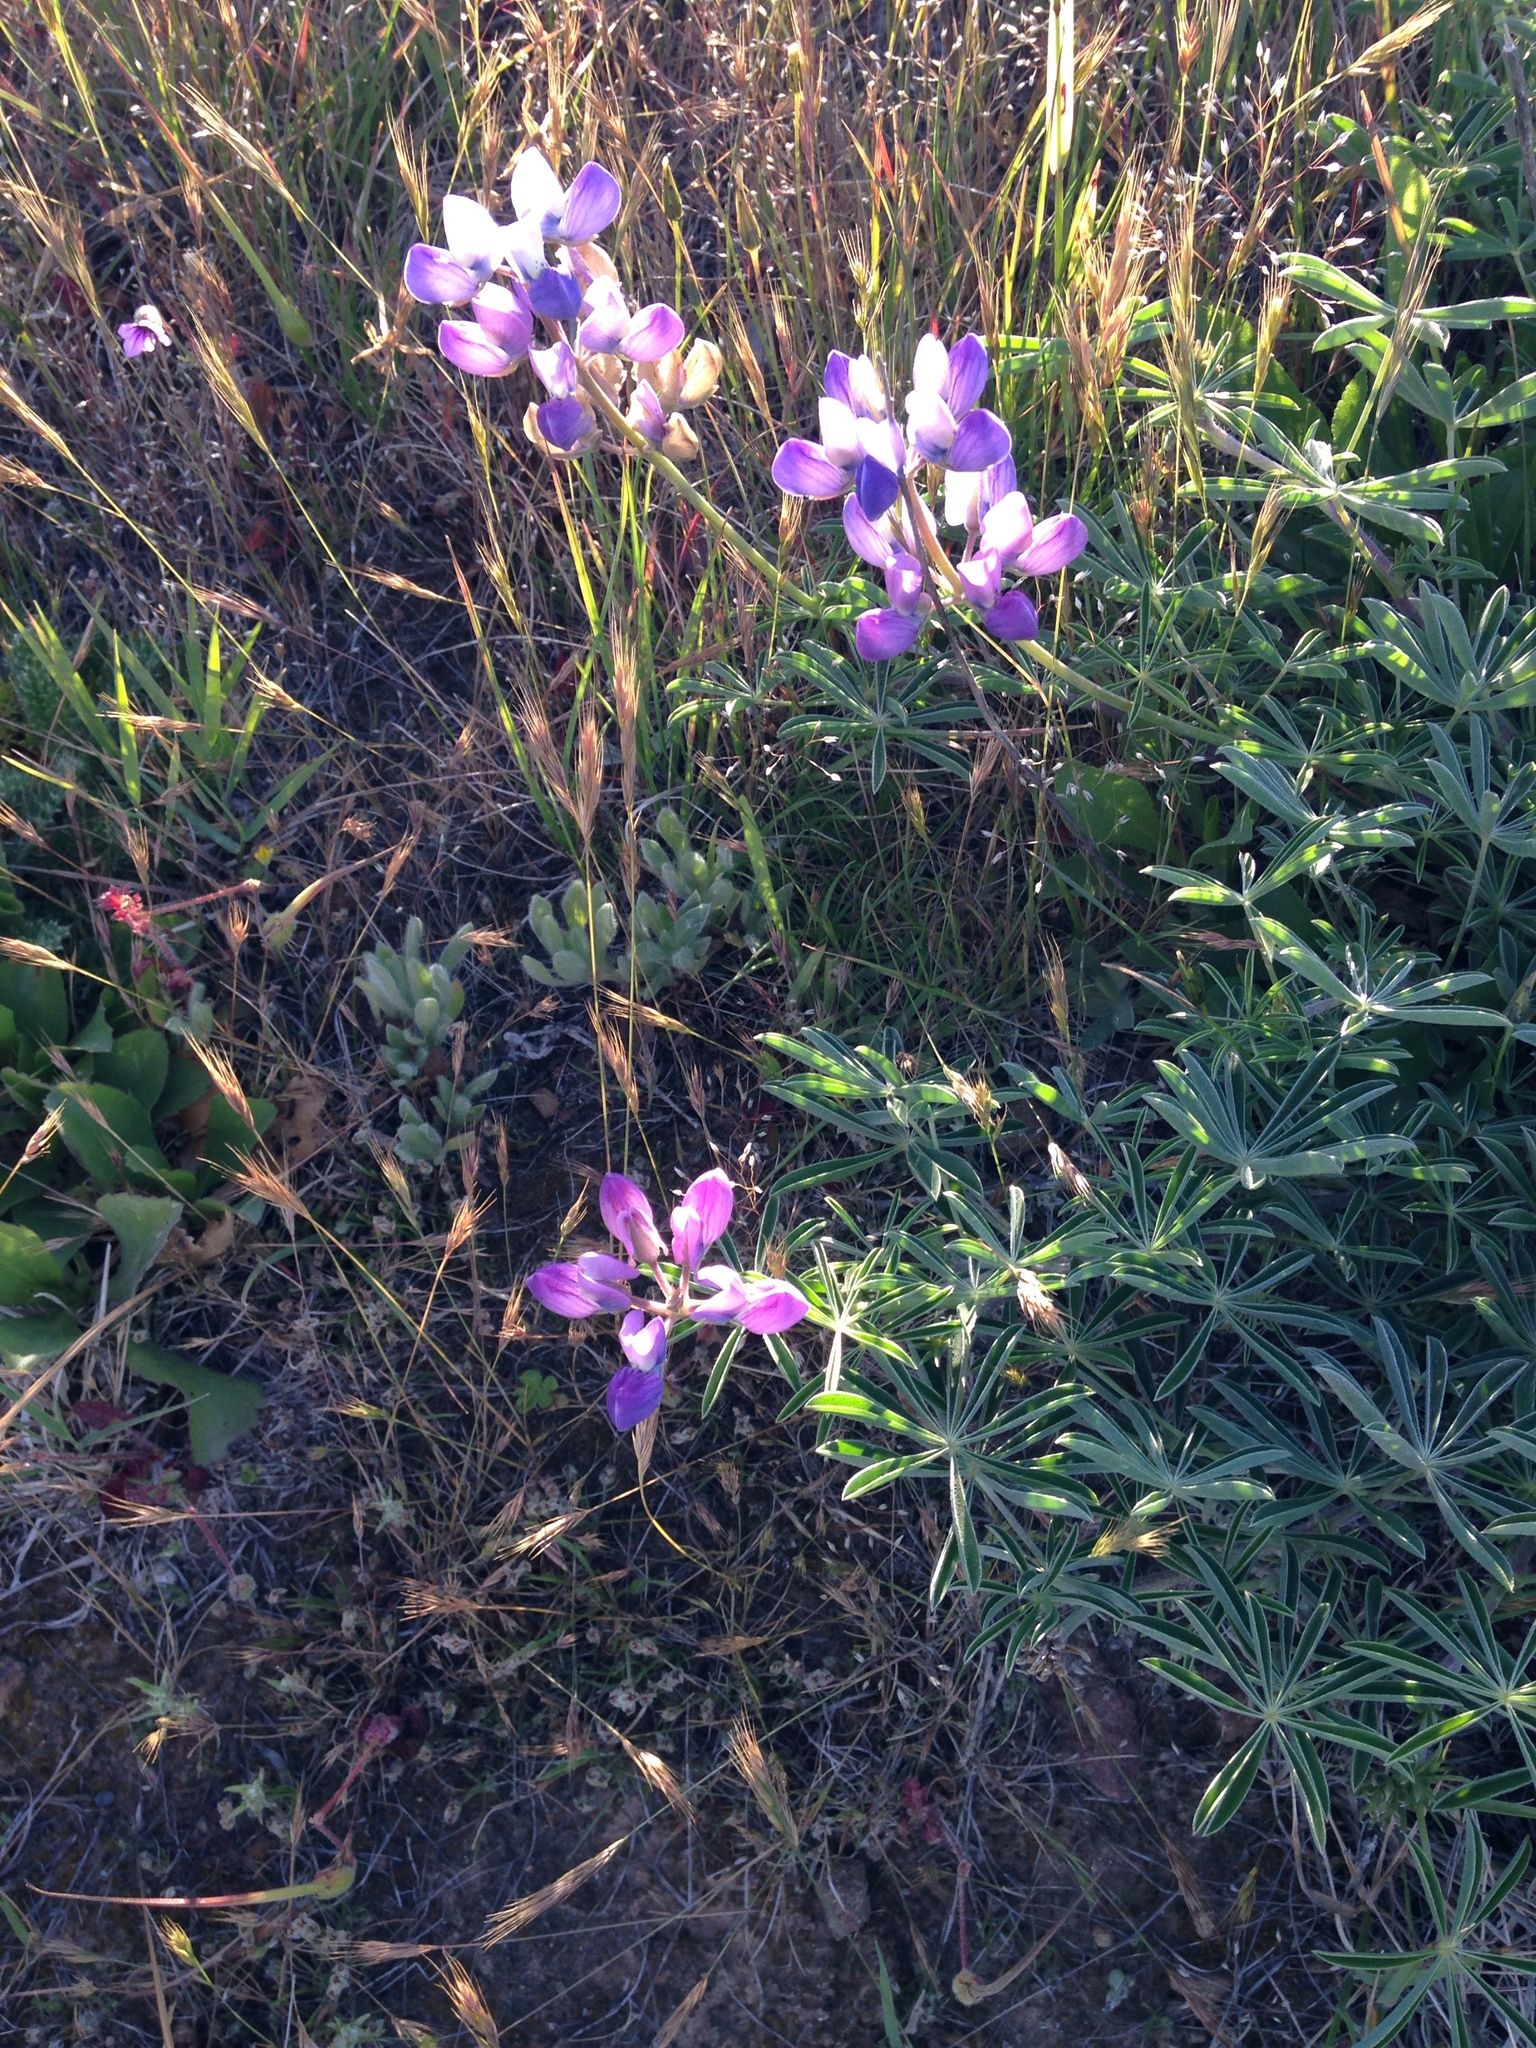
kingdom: Plantae
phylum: Tracheophyta
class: Magnoliopsida
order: Fabales
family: Fabaceae
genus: Lupinus
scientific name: Lupinus variicolor
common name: Lindley's varied lupine
